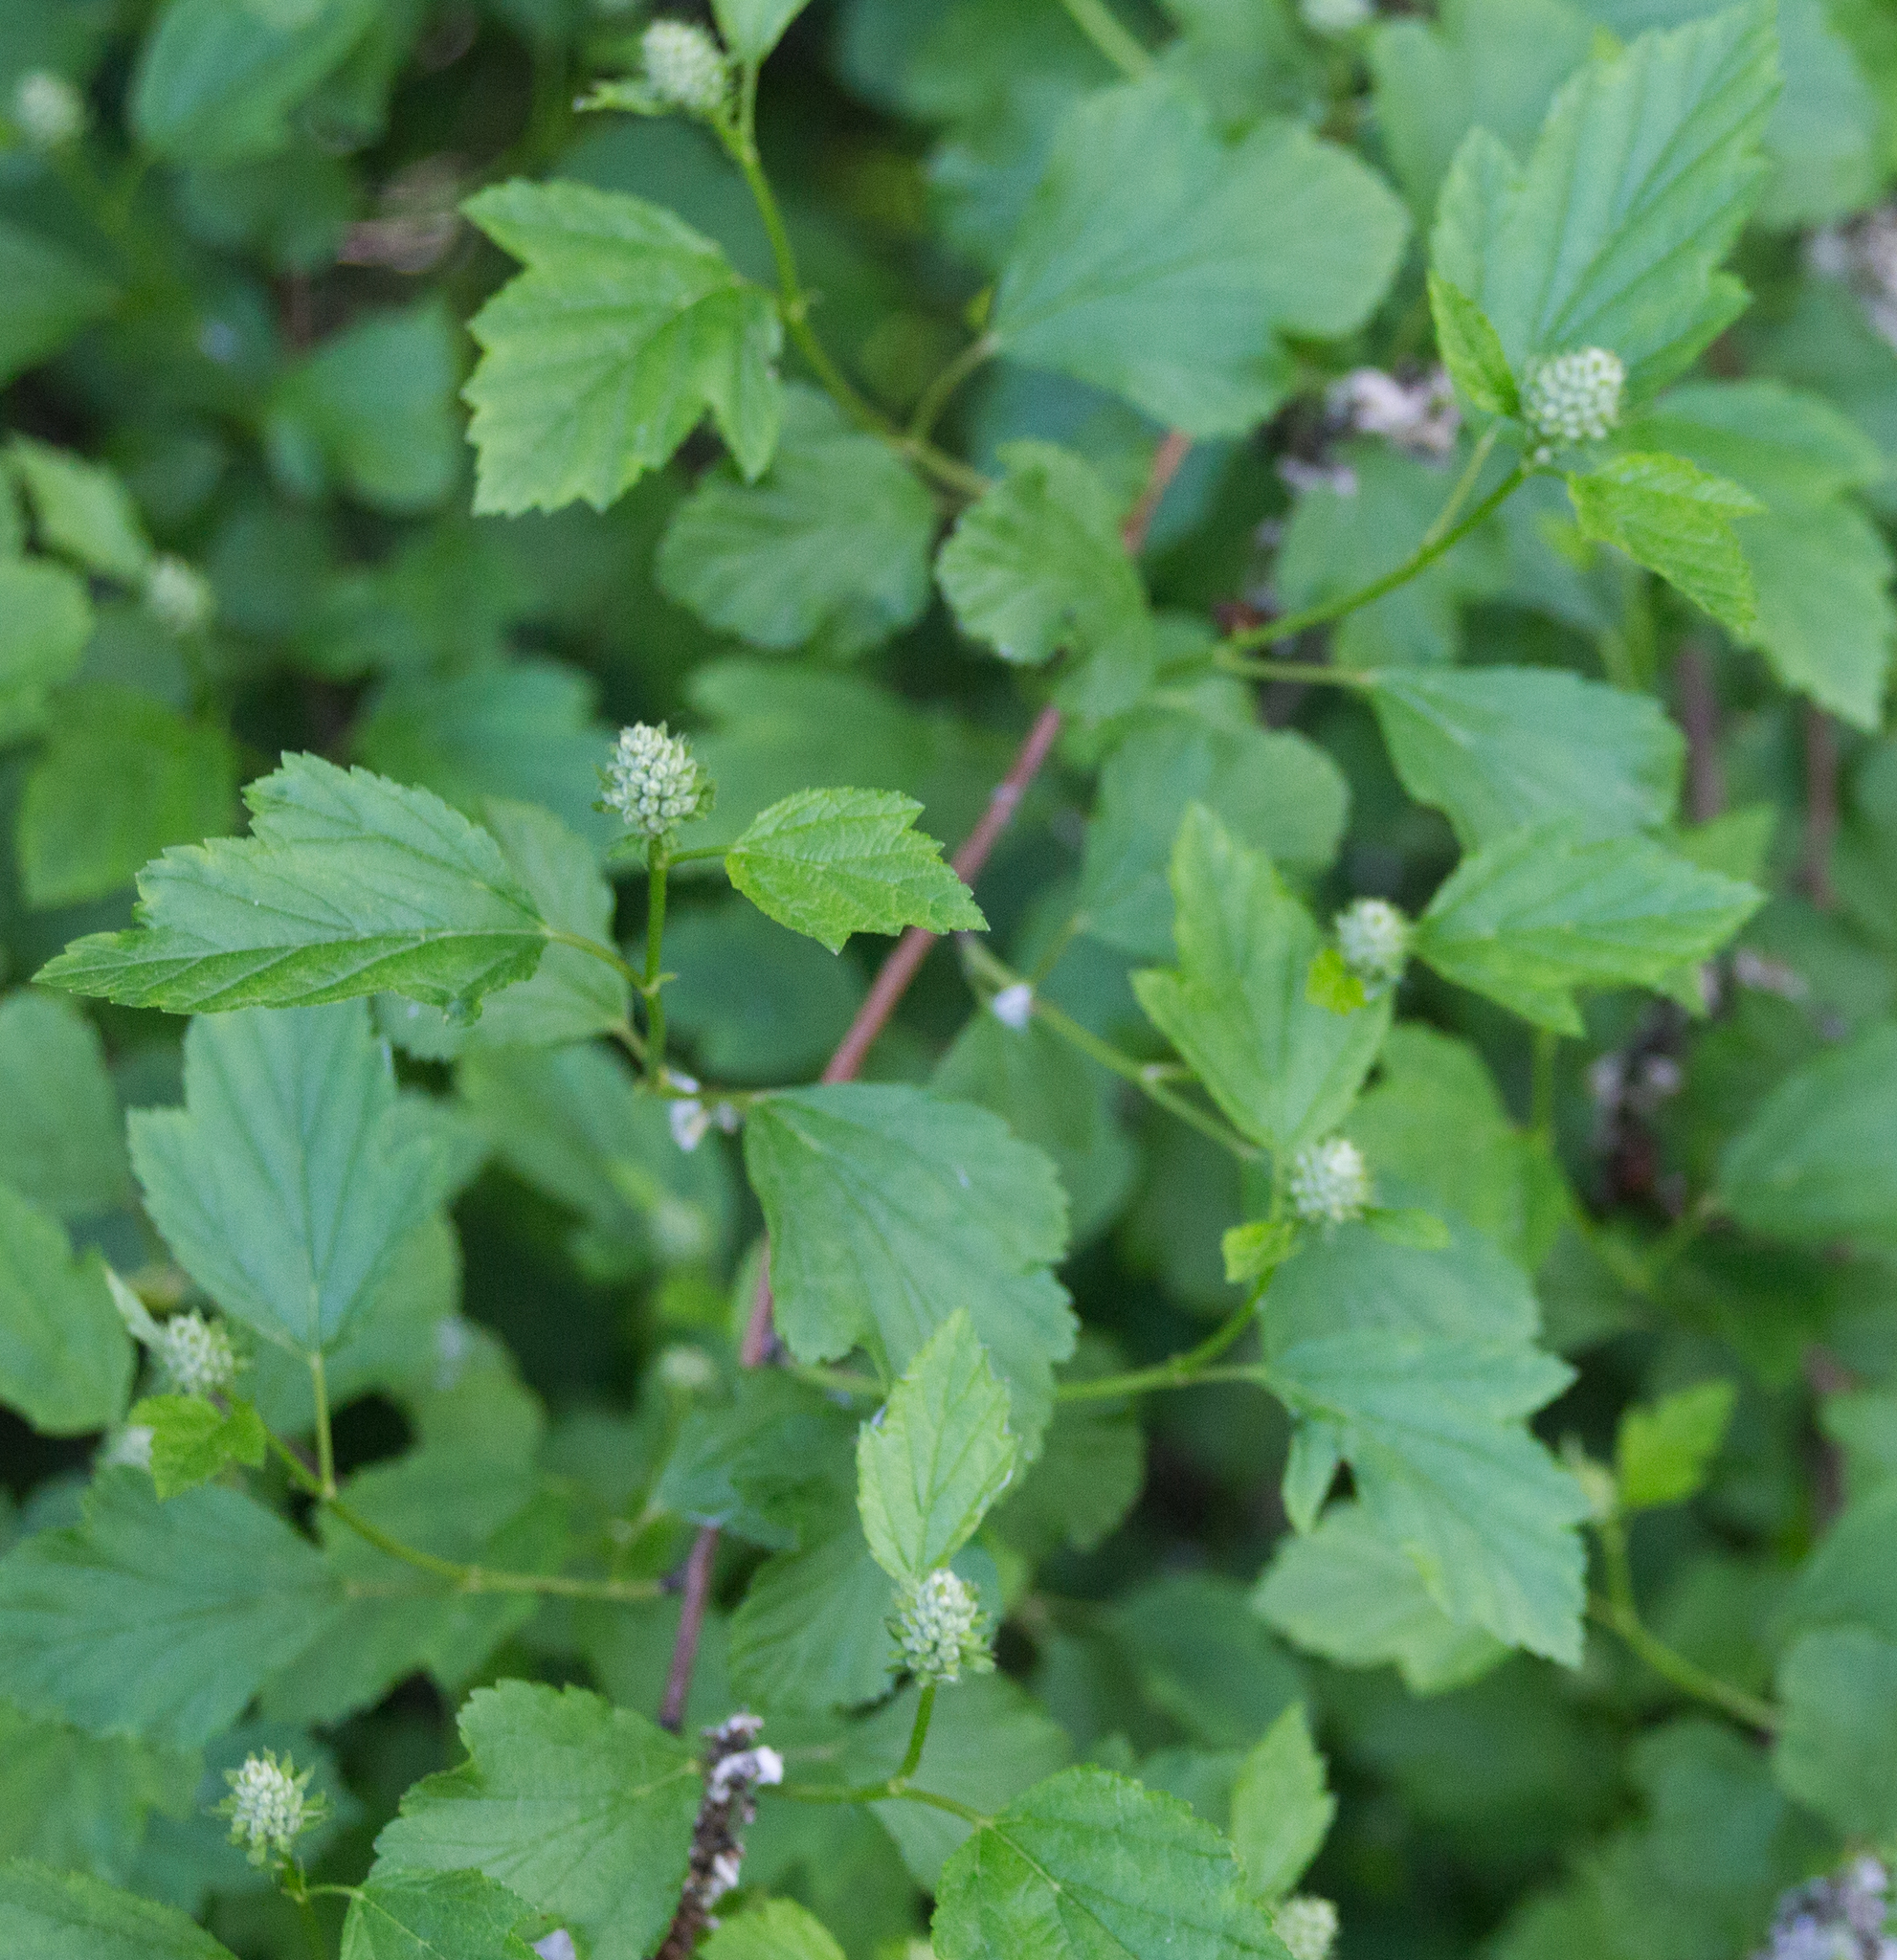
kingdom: Plantae
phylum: Tracheophyta
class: Magnoliopsida
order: Rosales
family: Rosaceae
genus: Physocarpus
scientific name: Physocarpus opulifolius
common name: Ninebark
